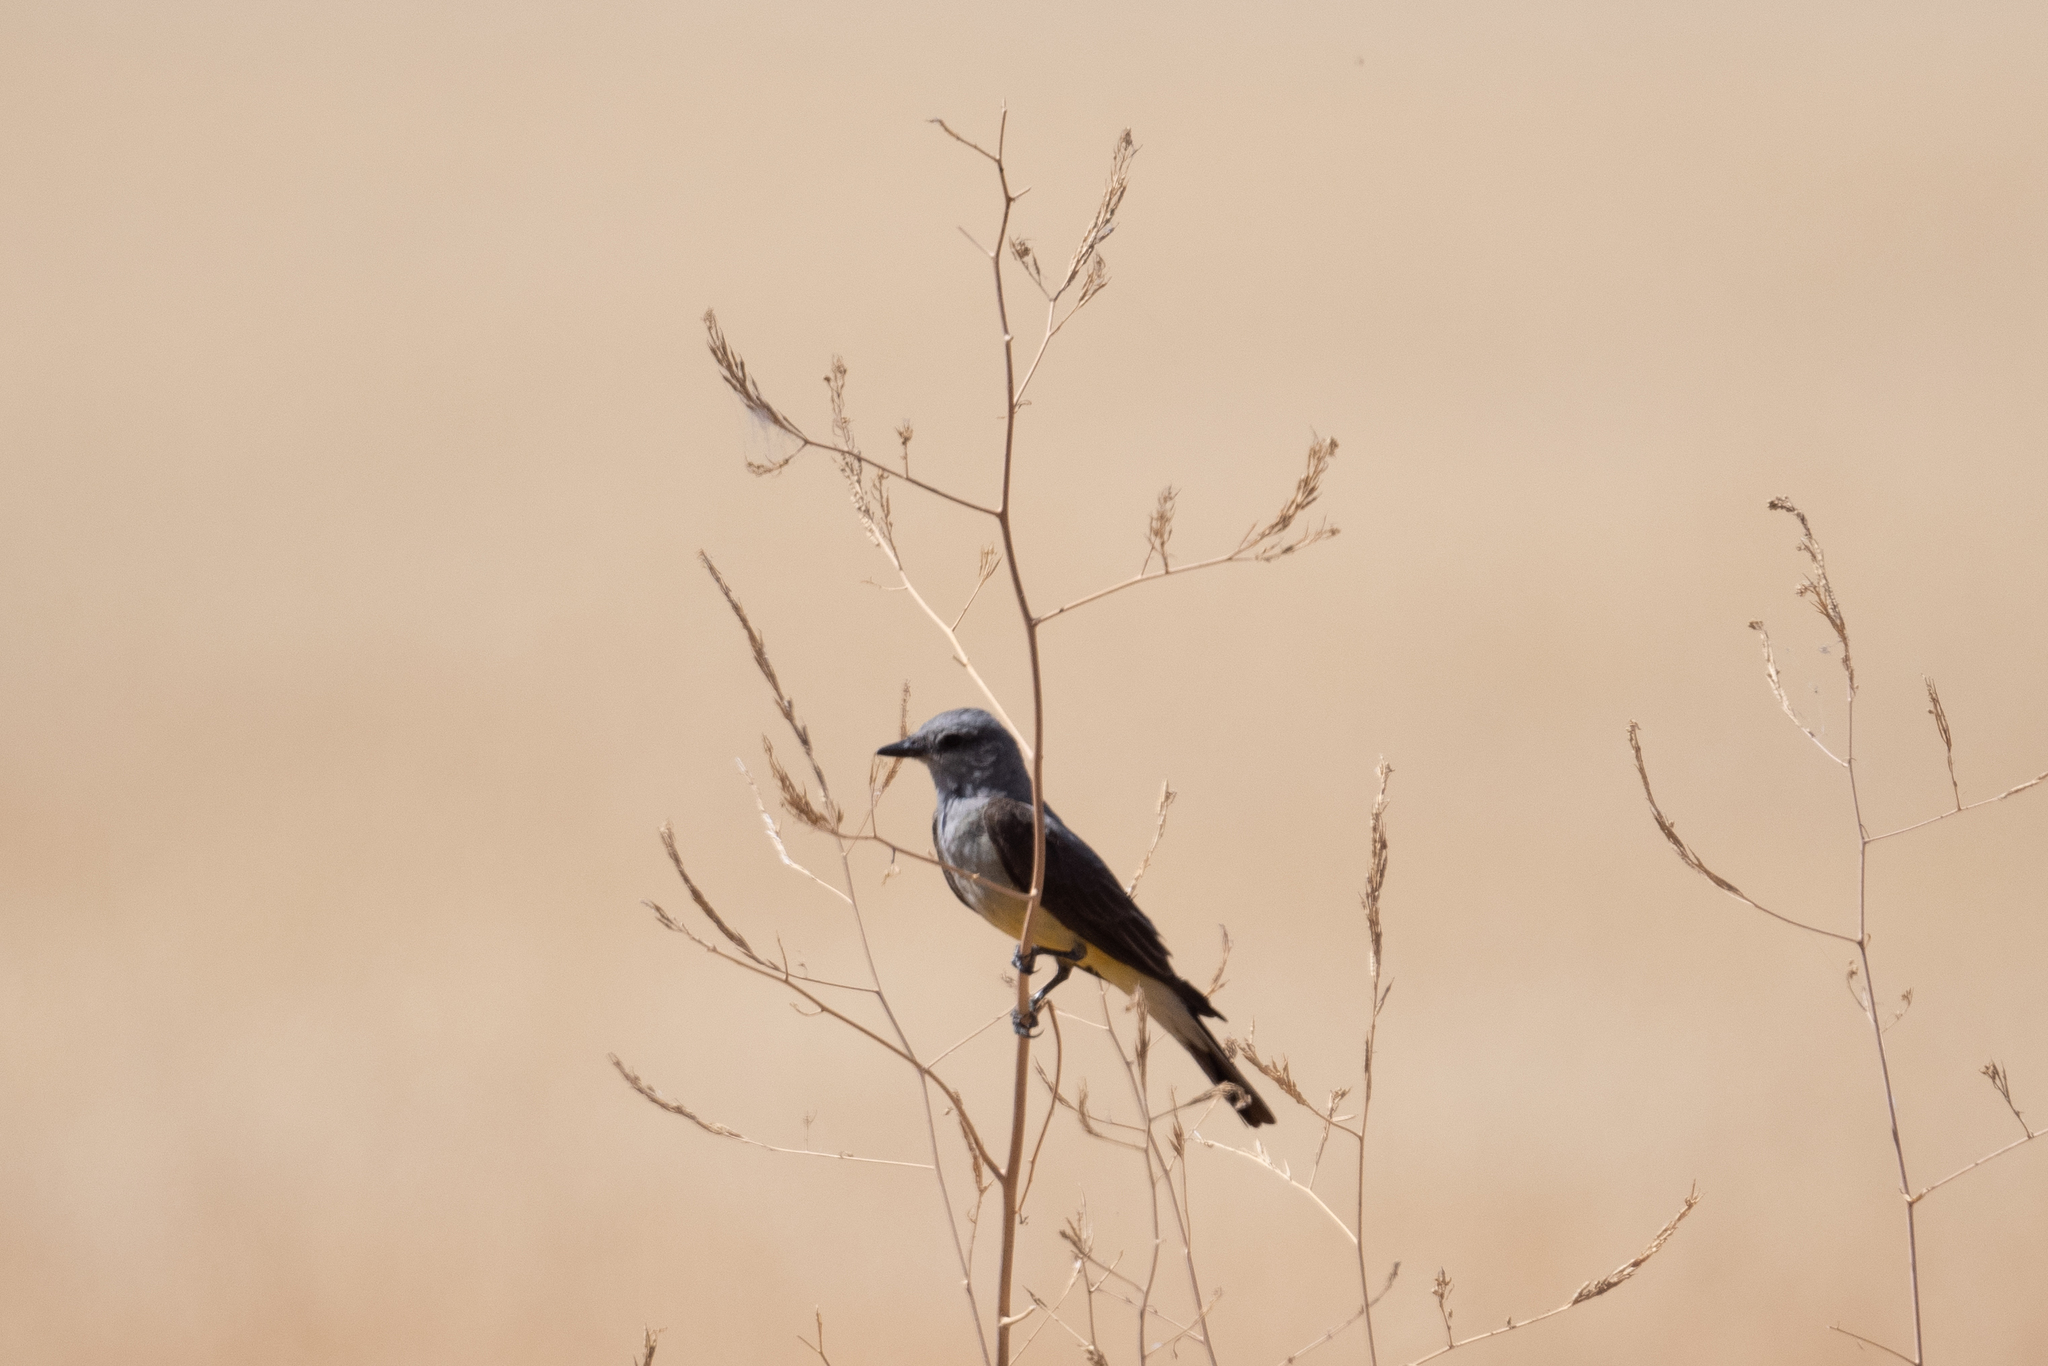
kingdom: Animalia
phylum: Chordata
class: Aves
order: Passeriformes
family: Tyrannidae
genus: Tyrannus
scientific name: Tyrannus verticalis
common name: Western kingbird
